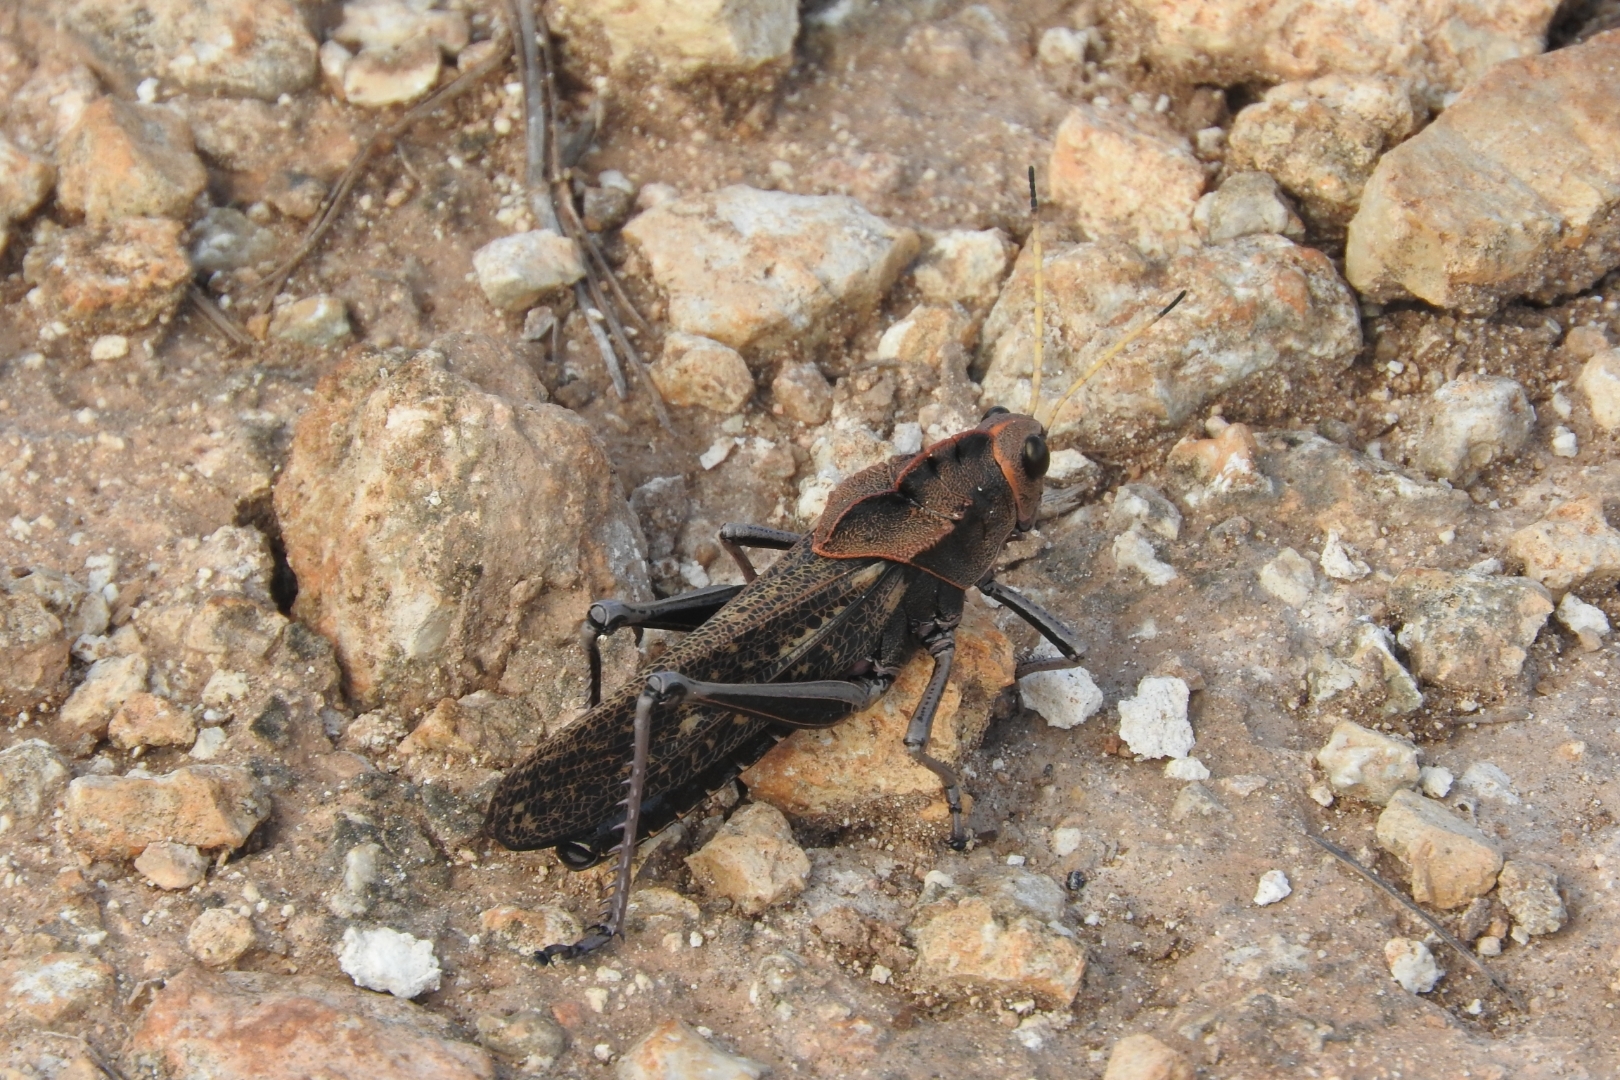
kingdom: Animalia
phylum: Arthropoda
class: Insecta
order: Orthoptera
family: Romaleidae
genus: Romalea
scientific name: Romalea
